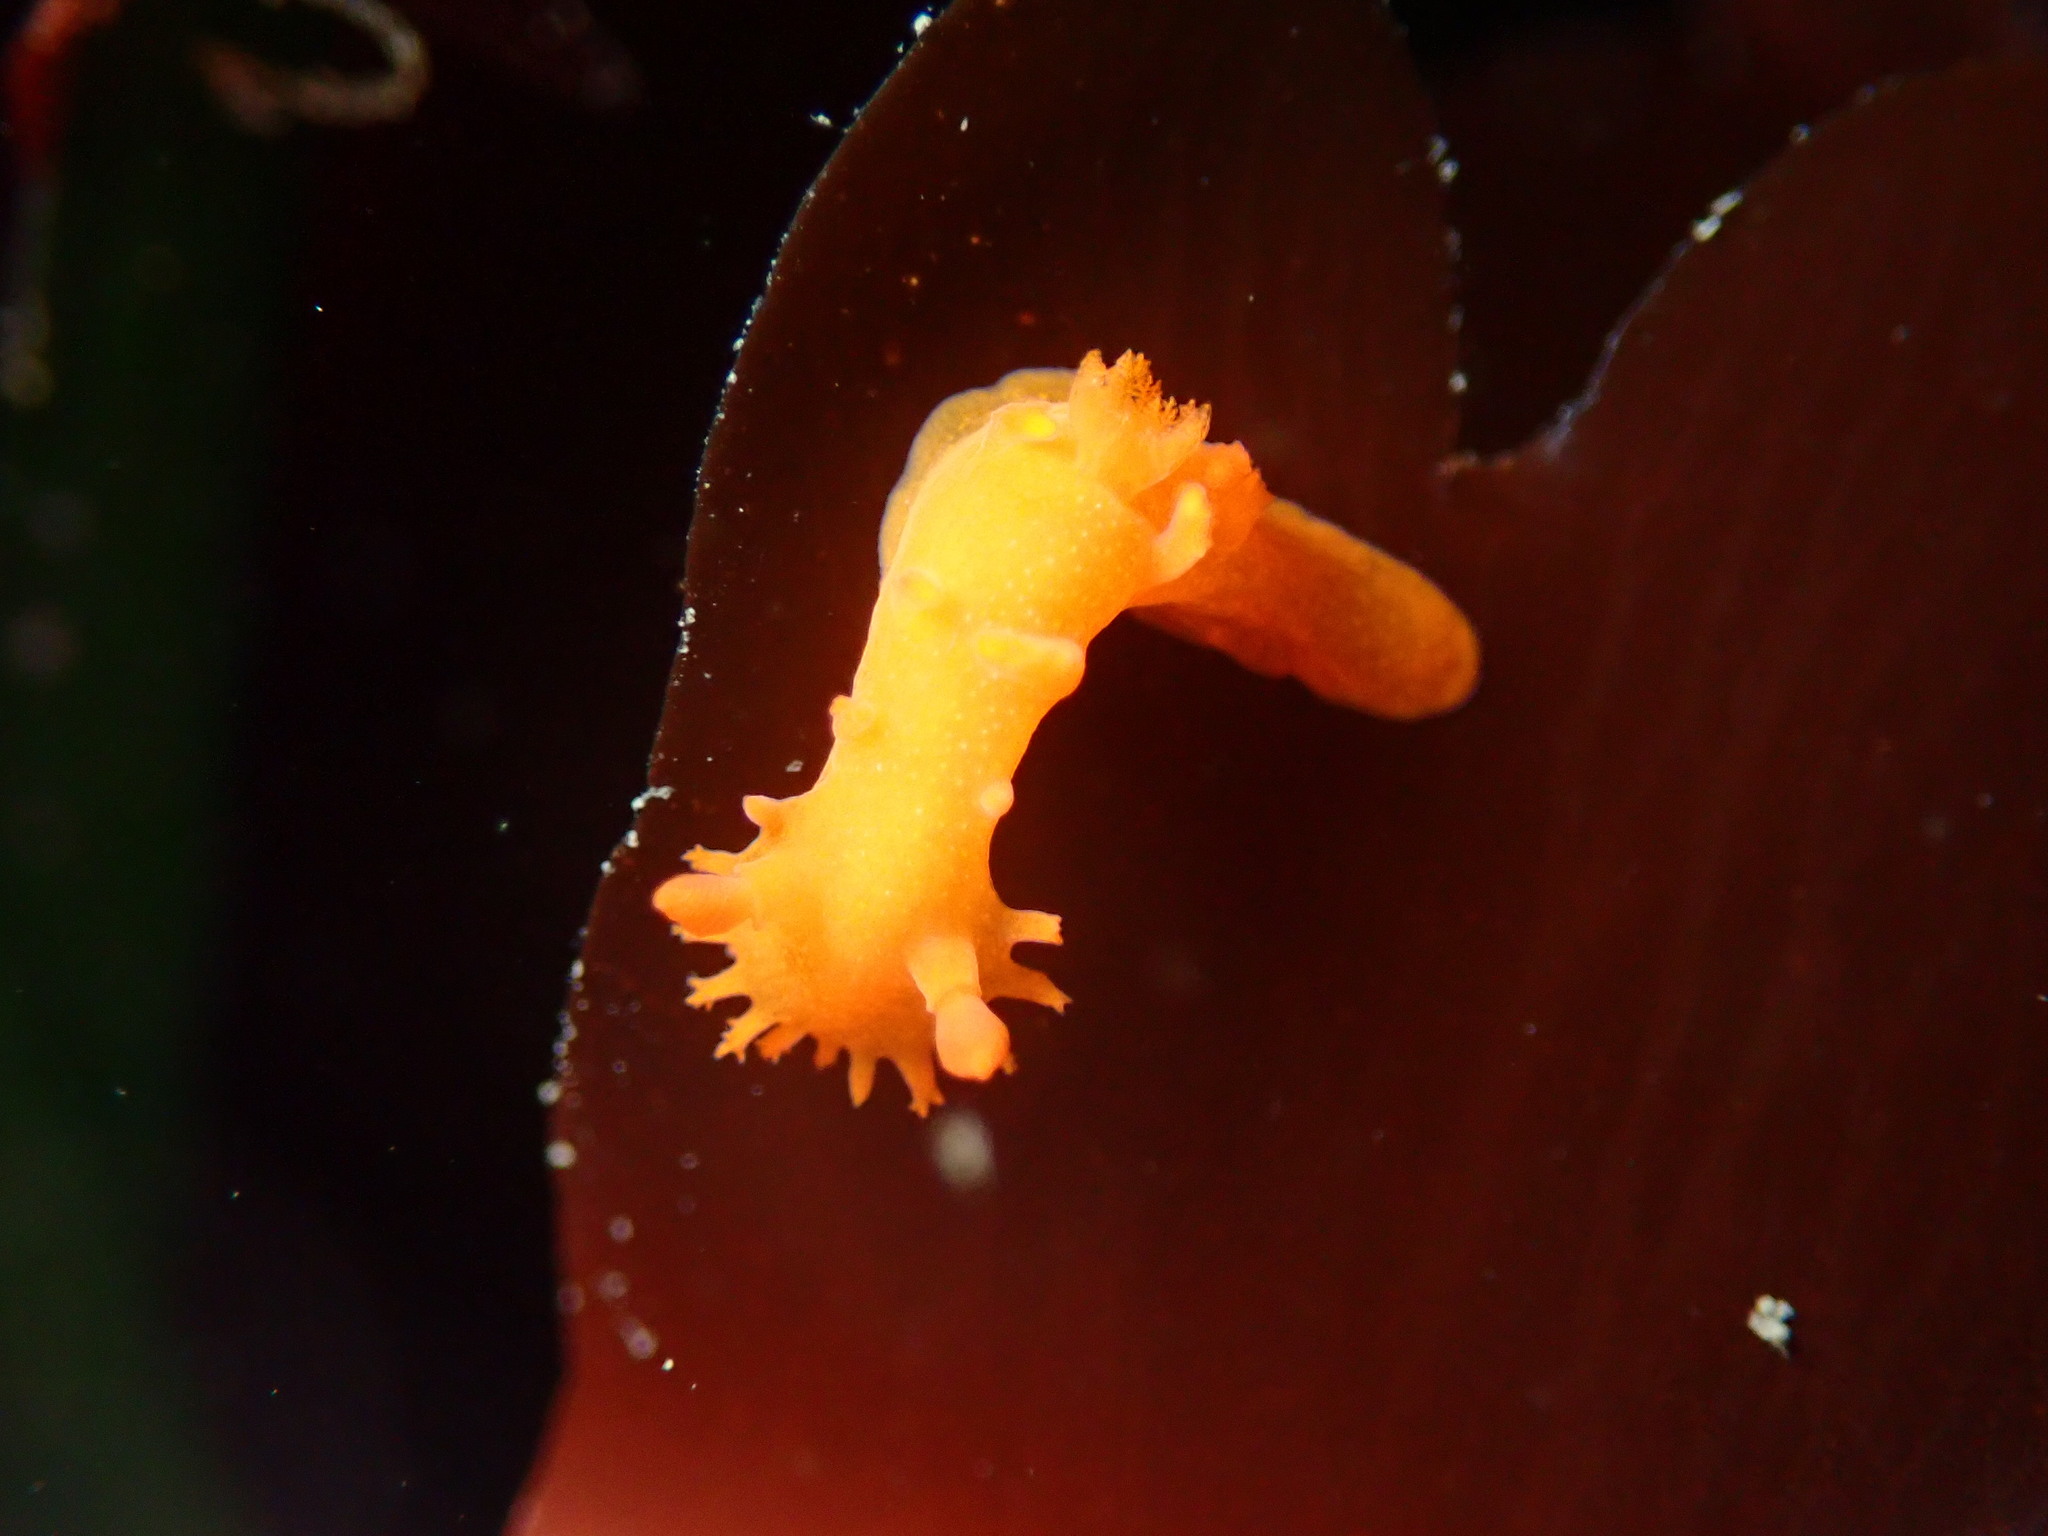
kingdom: Animalia
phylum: Mollusca
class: Gastropoda
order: Nudibranchia
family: Polyceridae
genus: Triopha
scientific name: Triopha maculata
